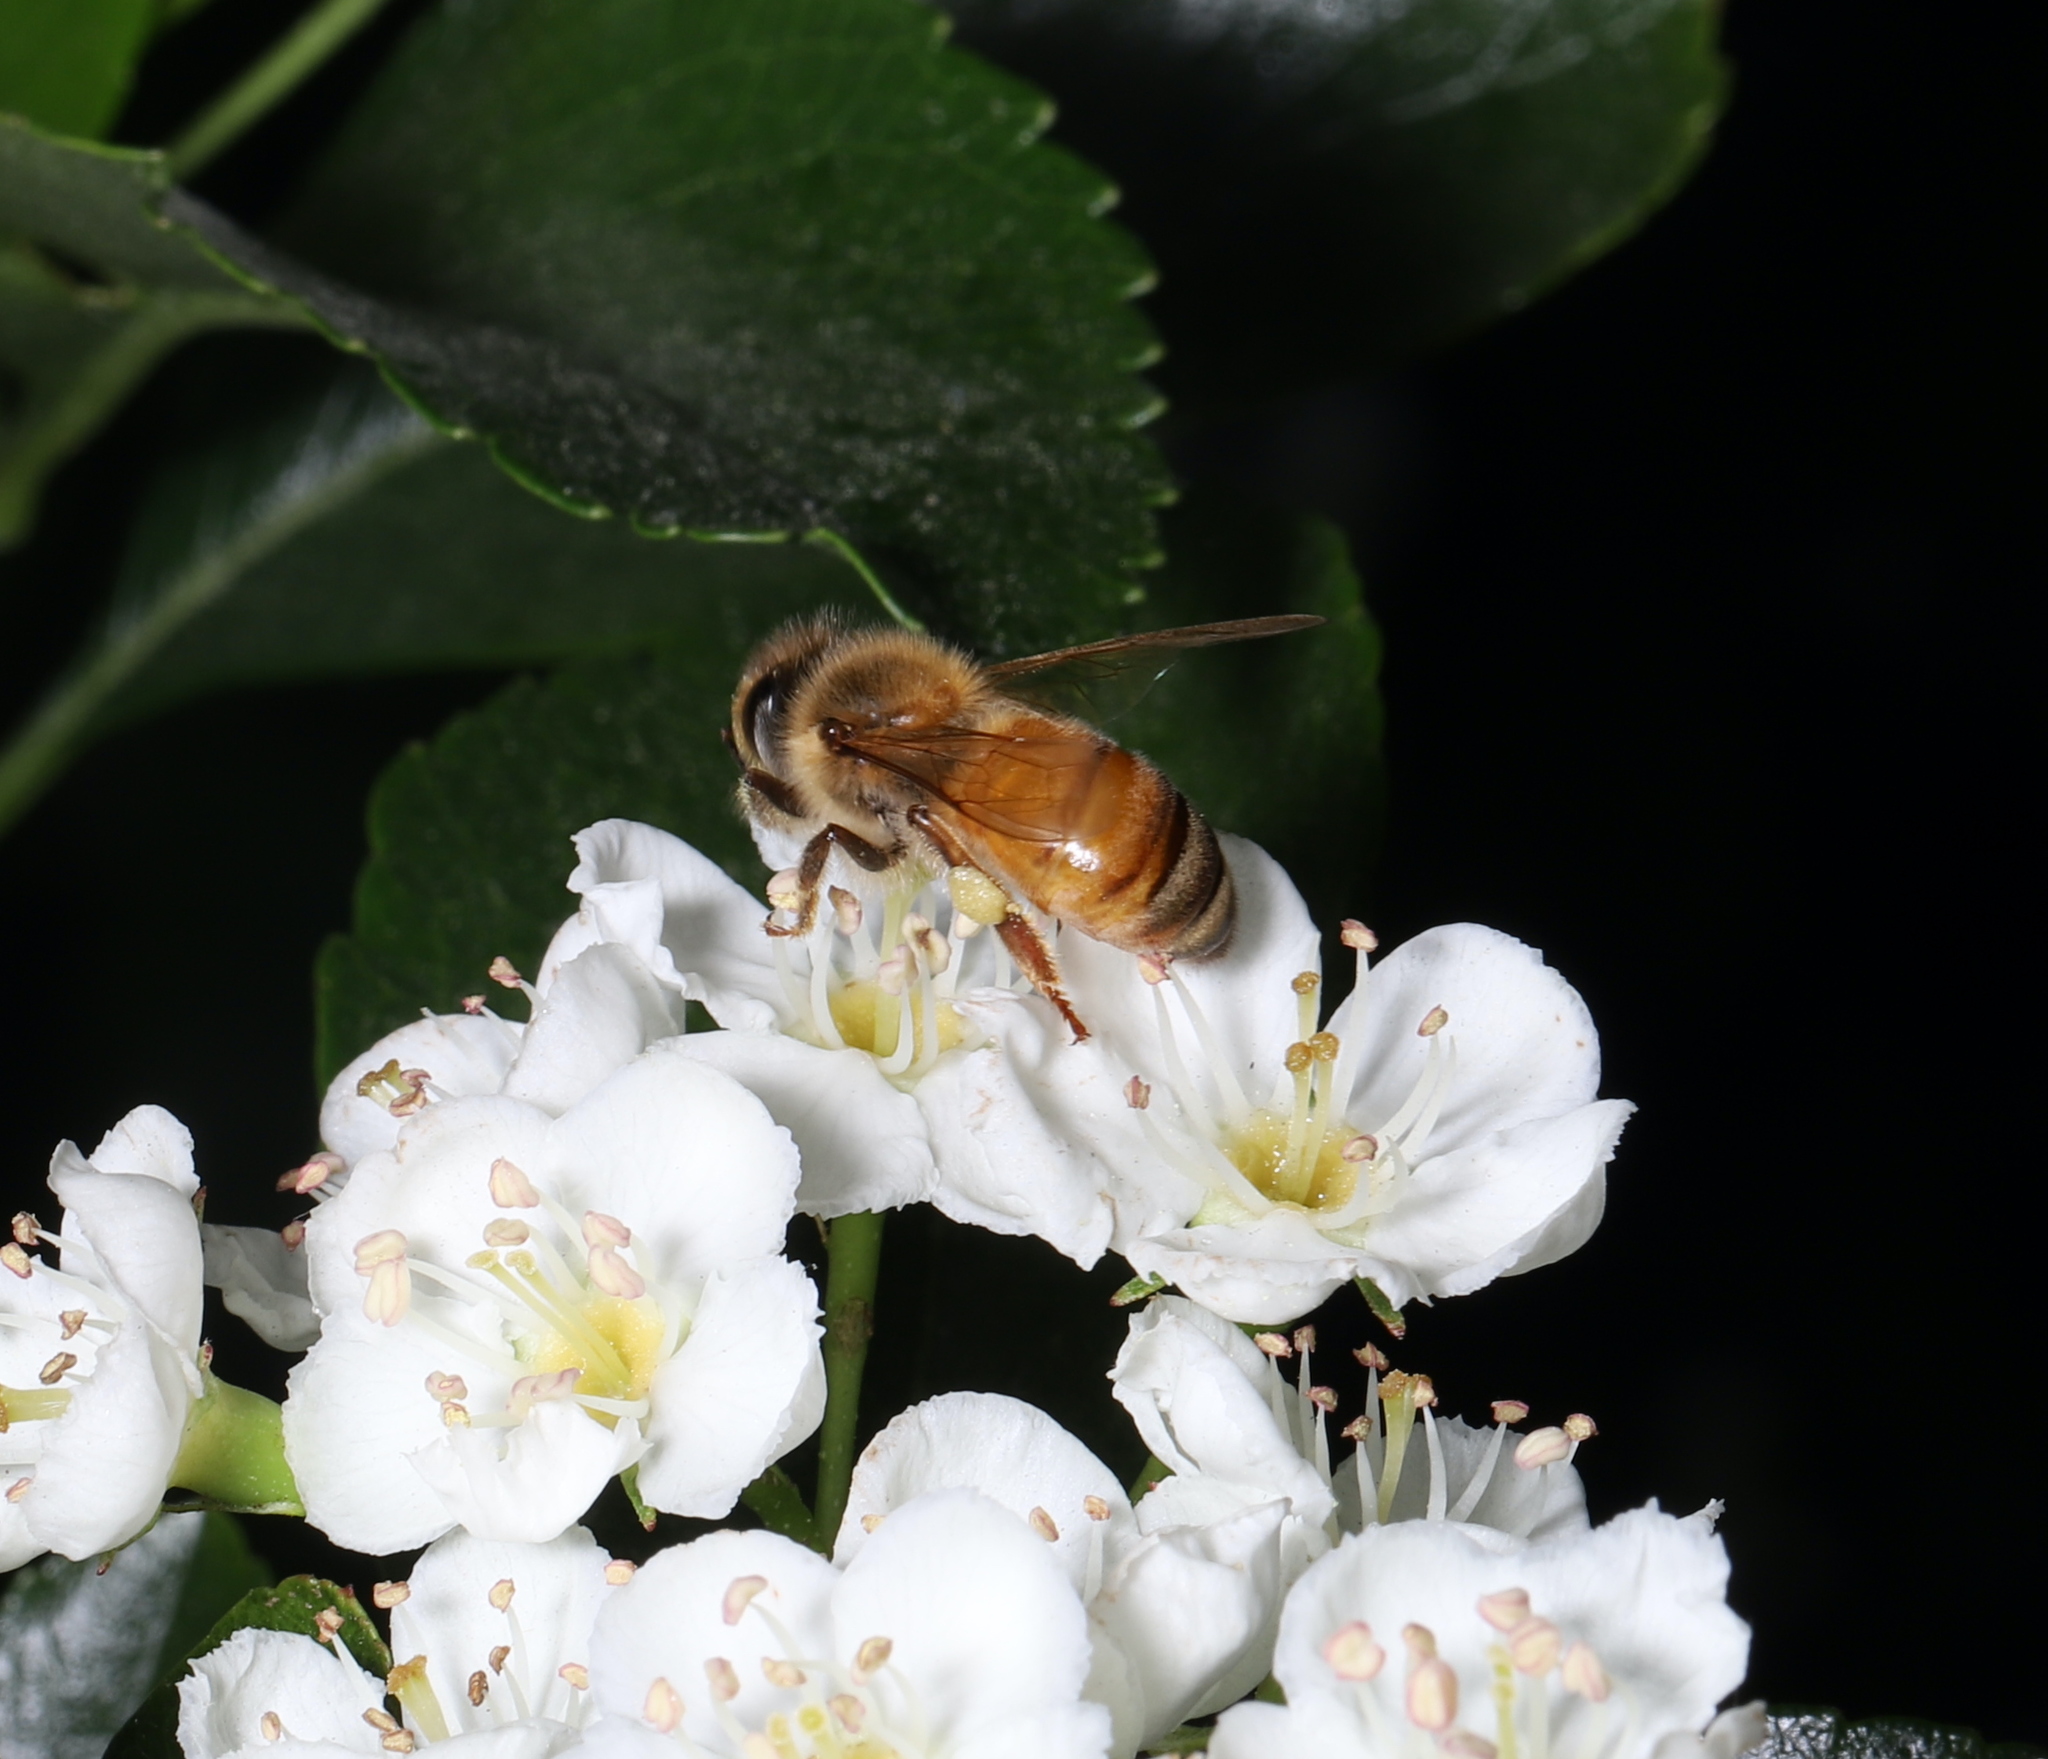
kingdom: Animalia
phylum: Arthropoda
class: Insecta
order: Hymenoptera
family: Apidae
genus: Apis
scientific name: Apis mellifera
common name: Honey bee
